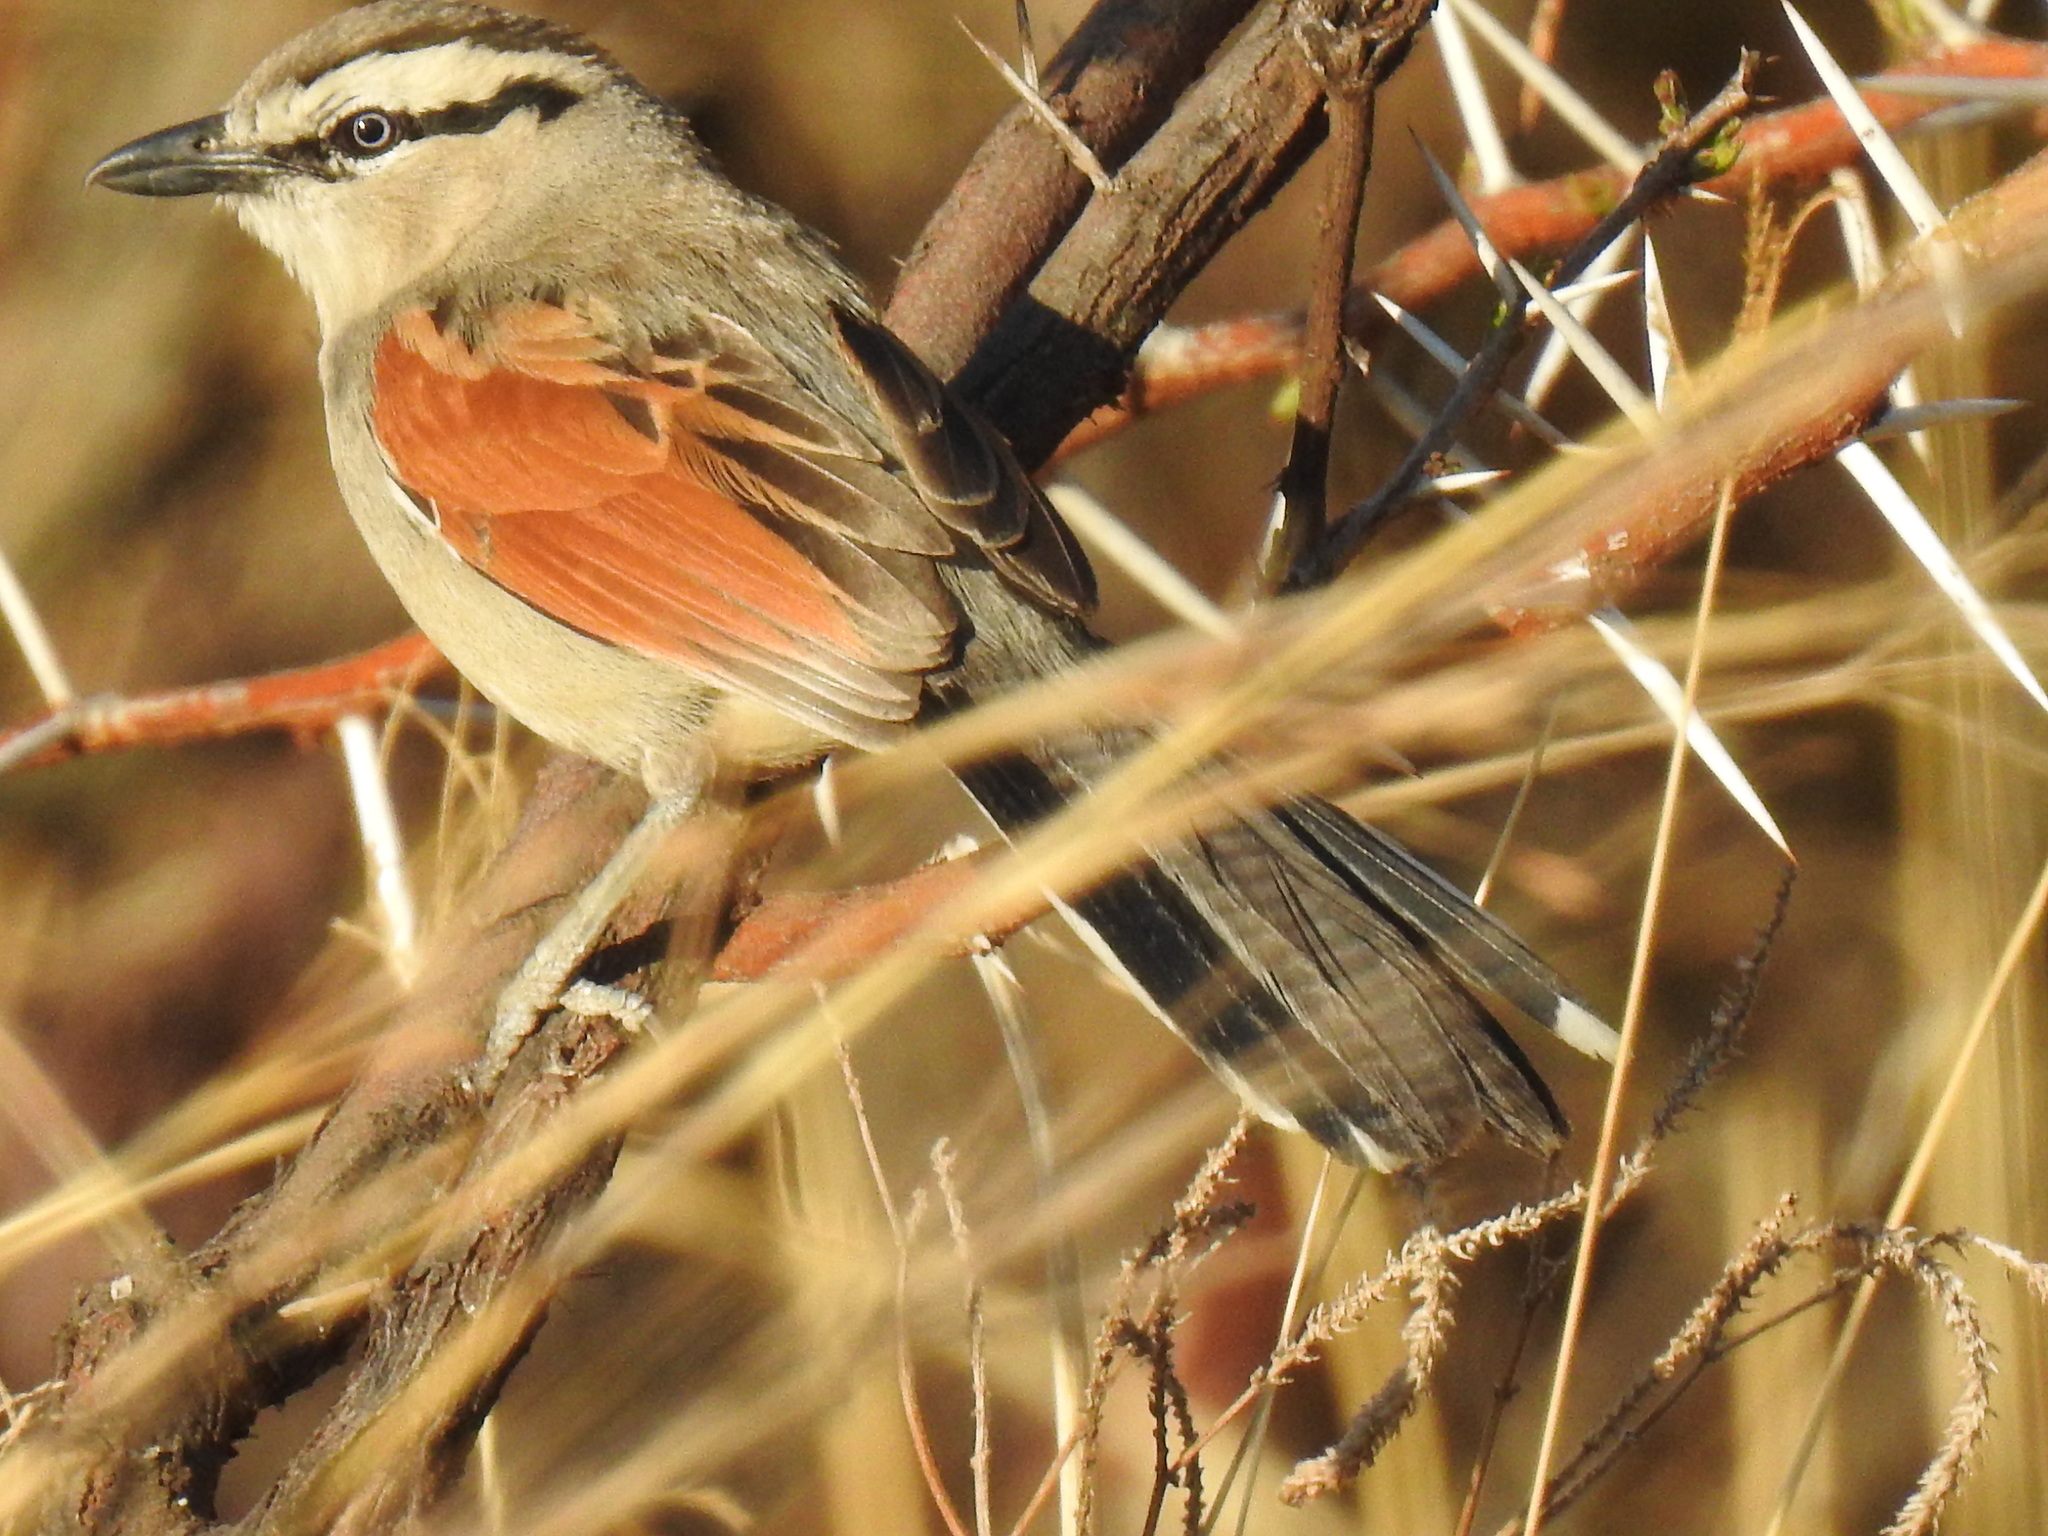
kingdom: Animalia
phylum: Chordata
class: Aves
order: Passeriformes
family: Malaconotidae
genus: Tchagra
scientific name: Tchagra australis
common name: Brown-crowned tchagra
